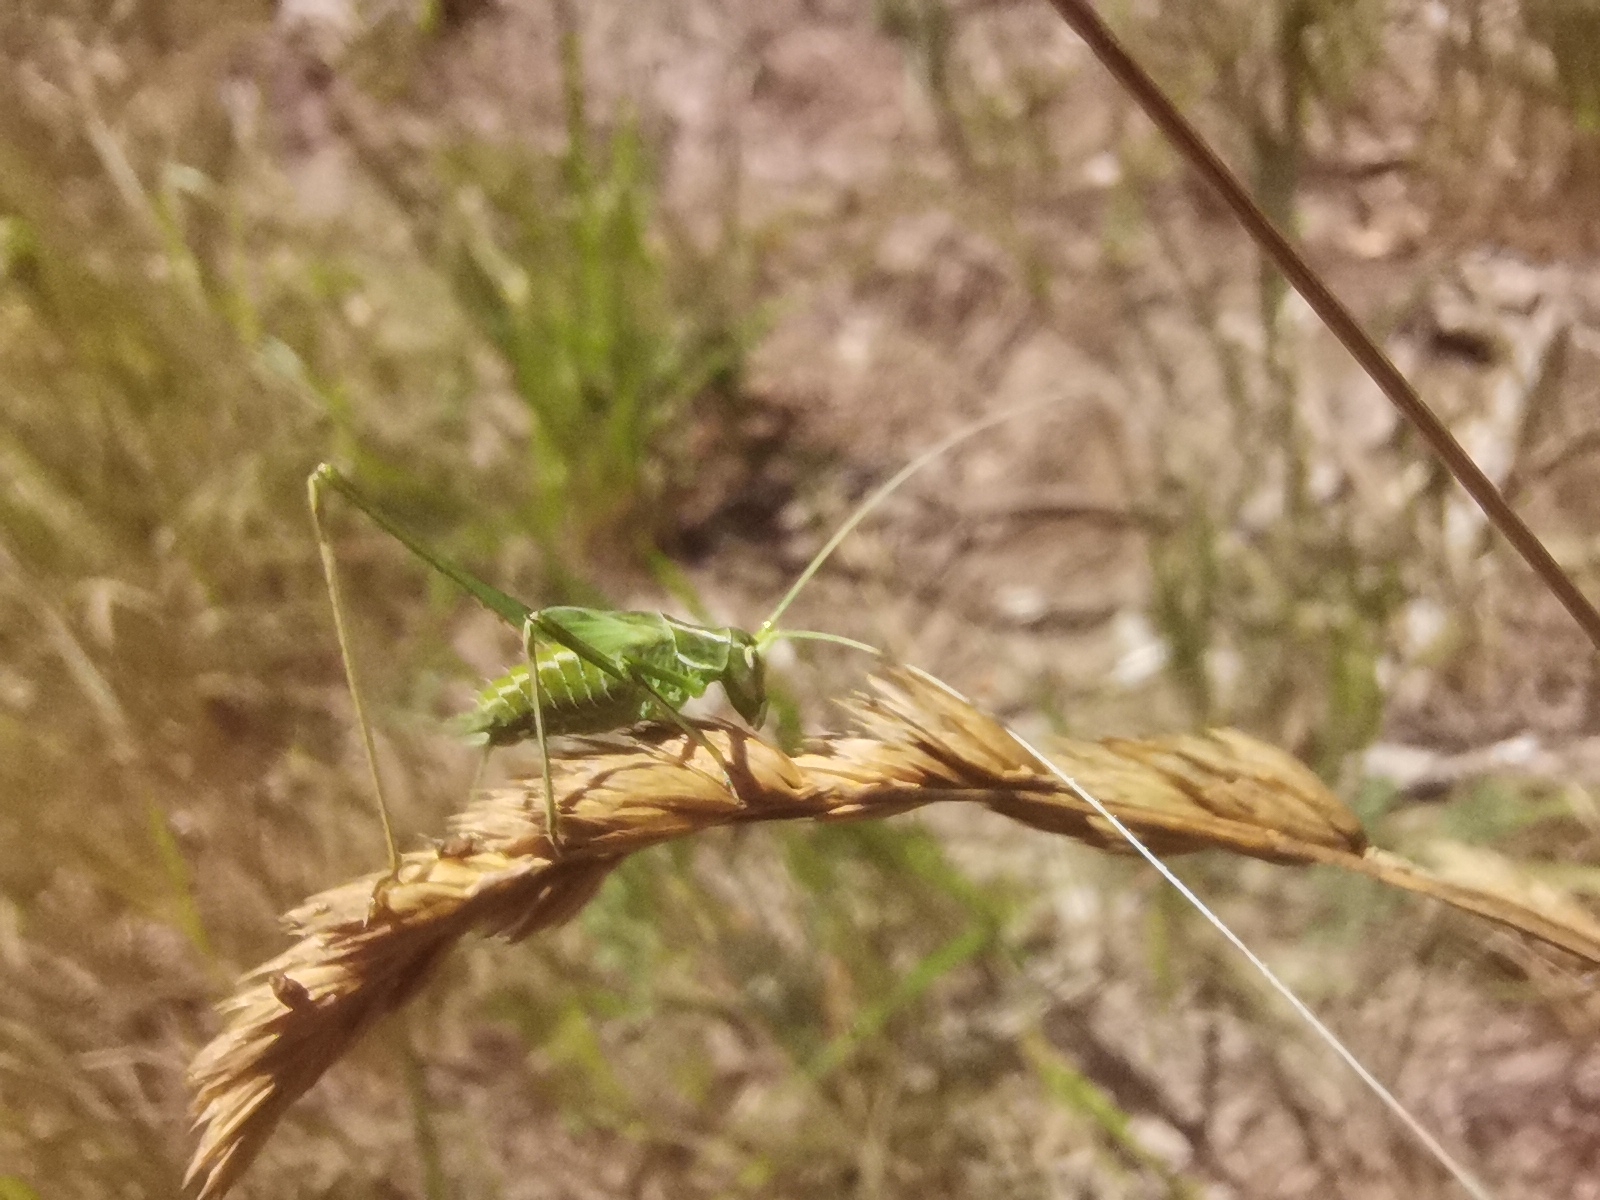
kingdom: Animalia
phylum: Arthropoda
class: Insecta
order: Orthoptera
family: Tettigoniidae
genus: Tylopsis
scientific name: Tylopsis lilifolia
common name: Lily bush-cricket
